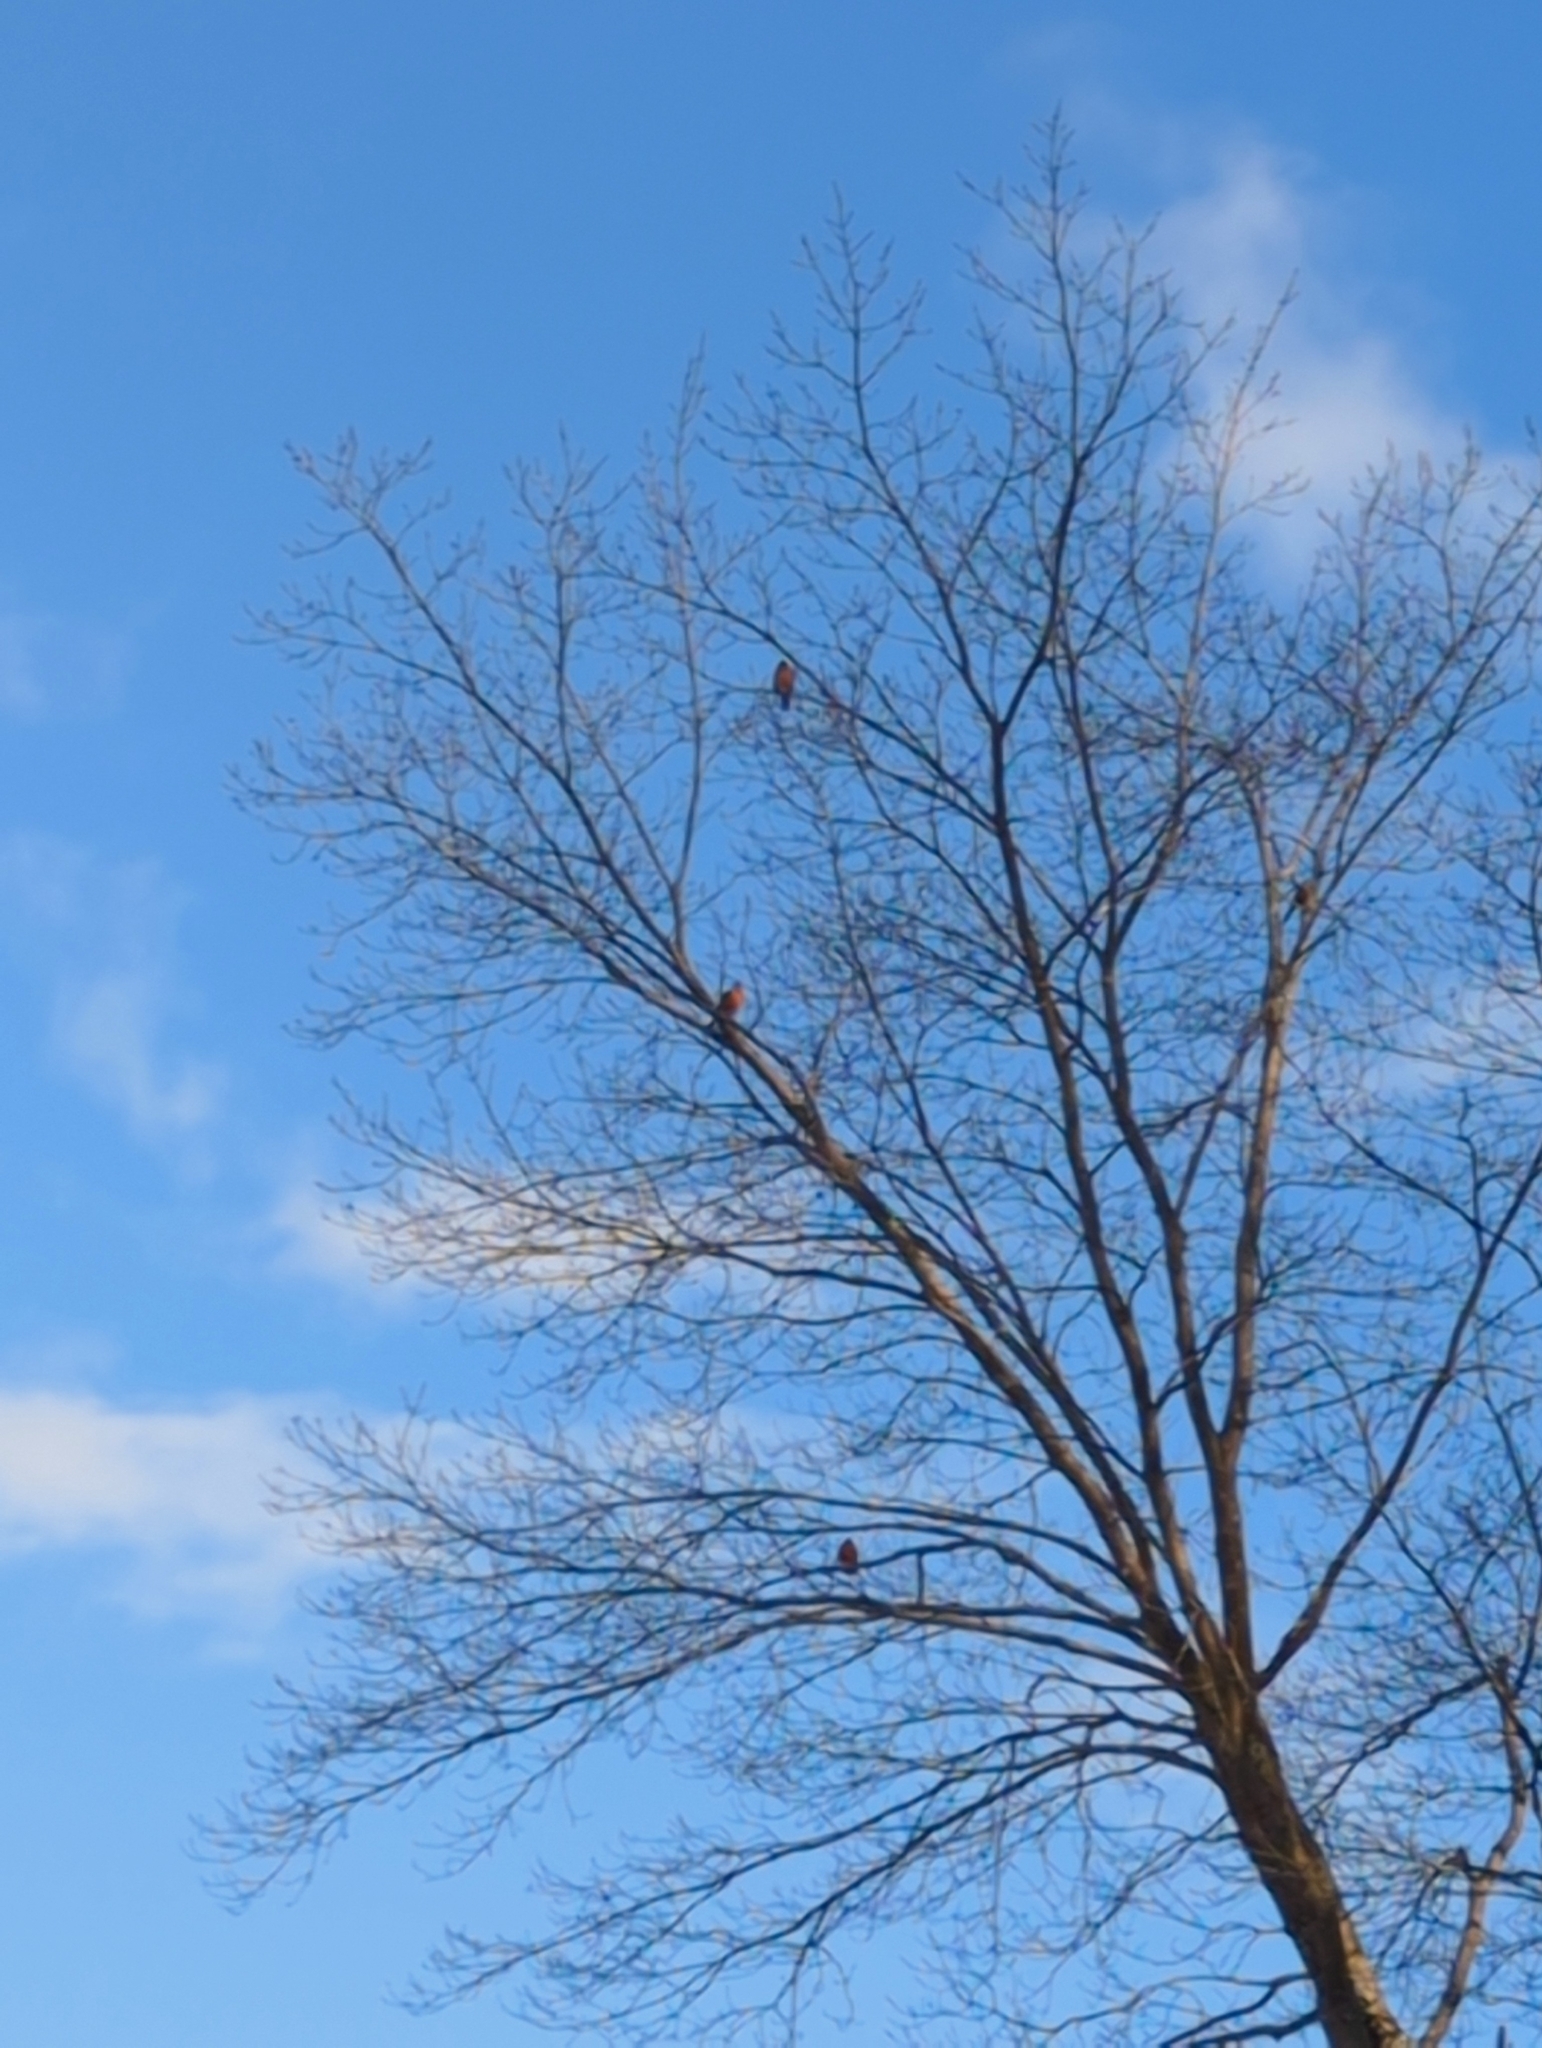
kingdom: Animalia
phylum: Chordata
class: Aves
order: Passeriformes
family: Turdidae
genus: Sialia
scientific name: Sialia sialis
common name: Eastern bluebird
